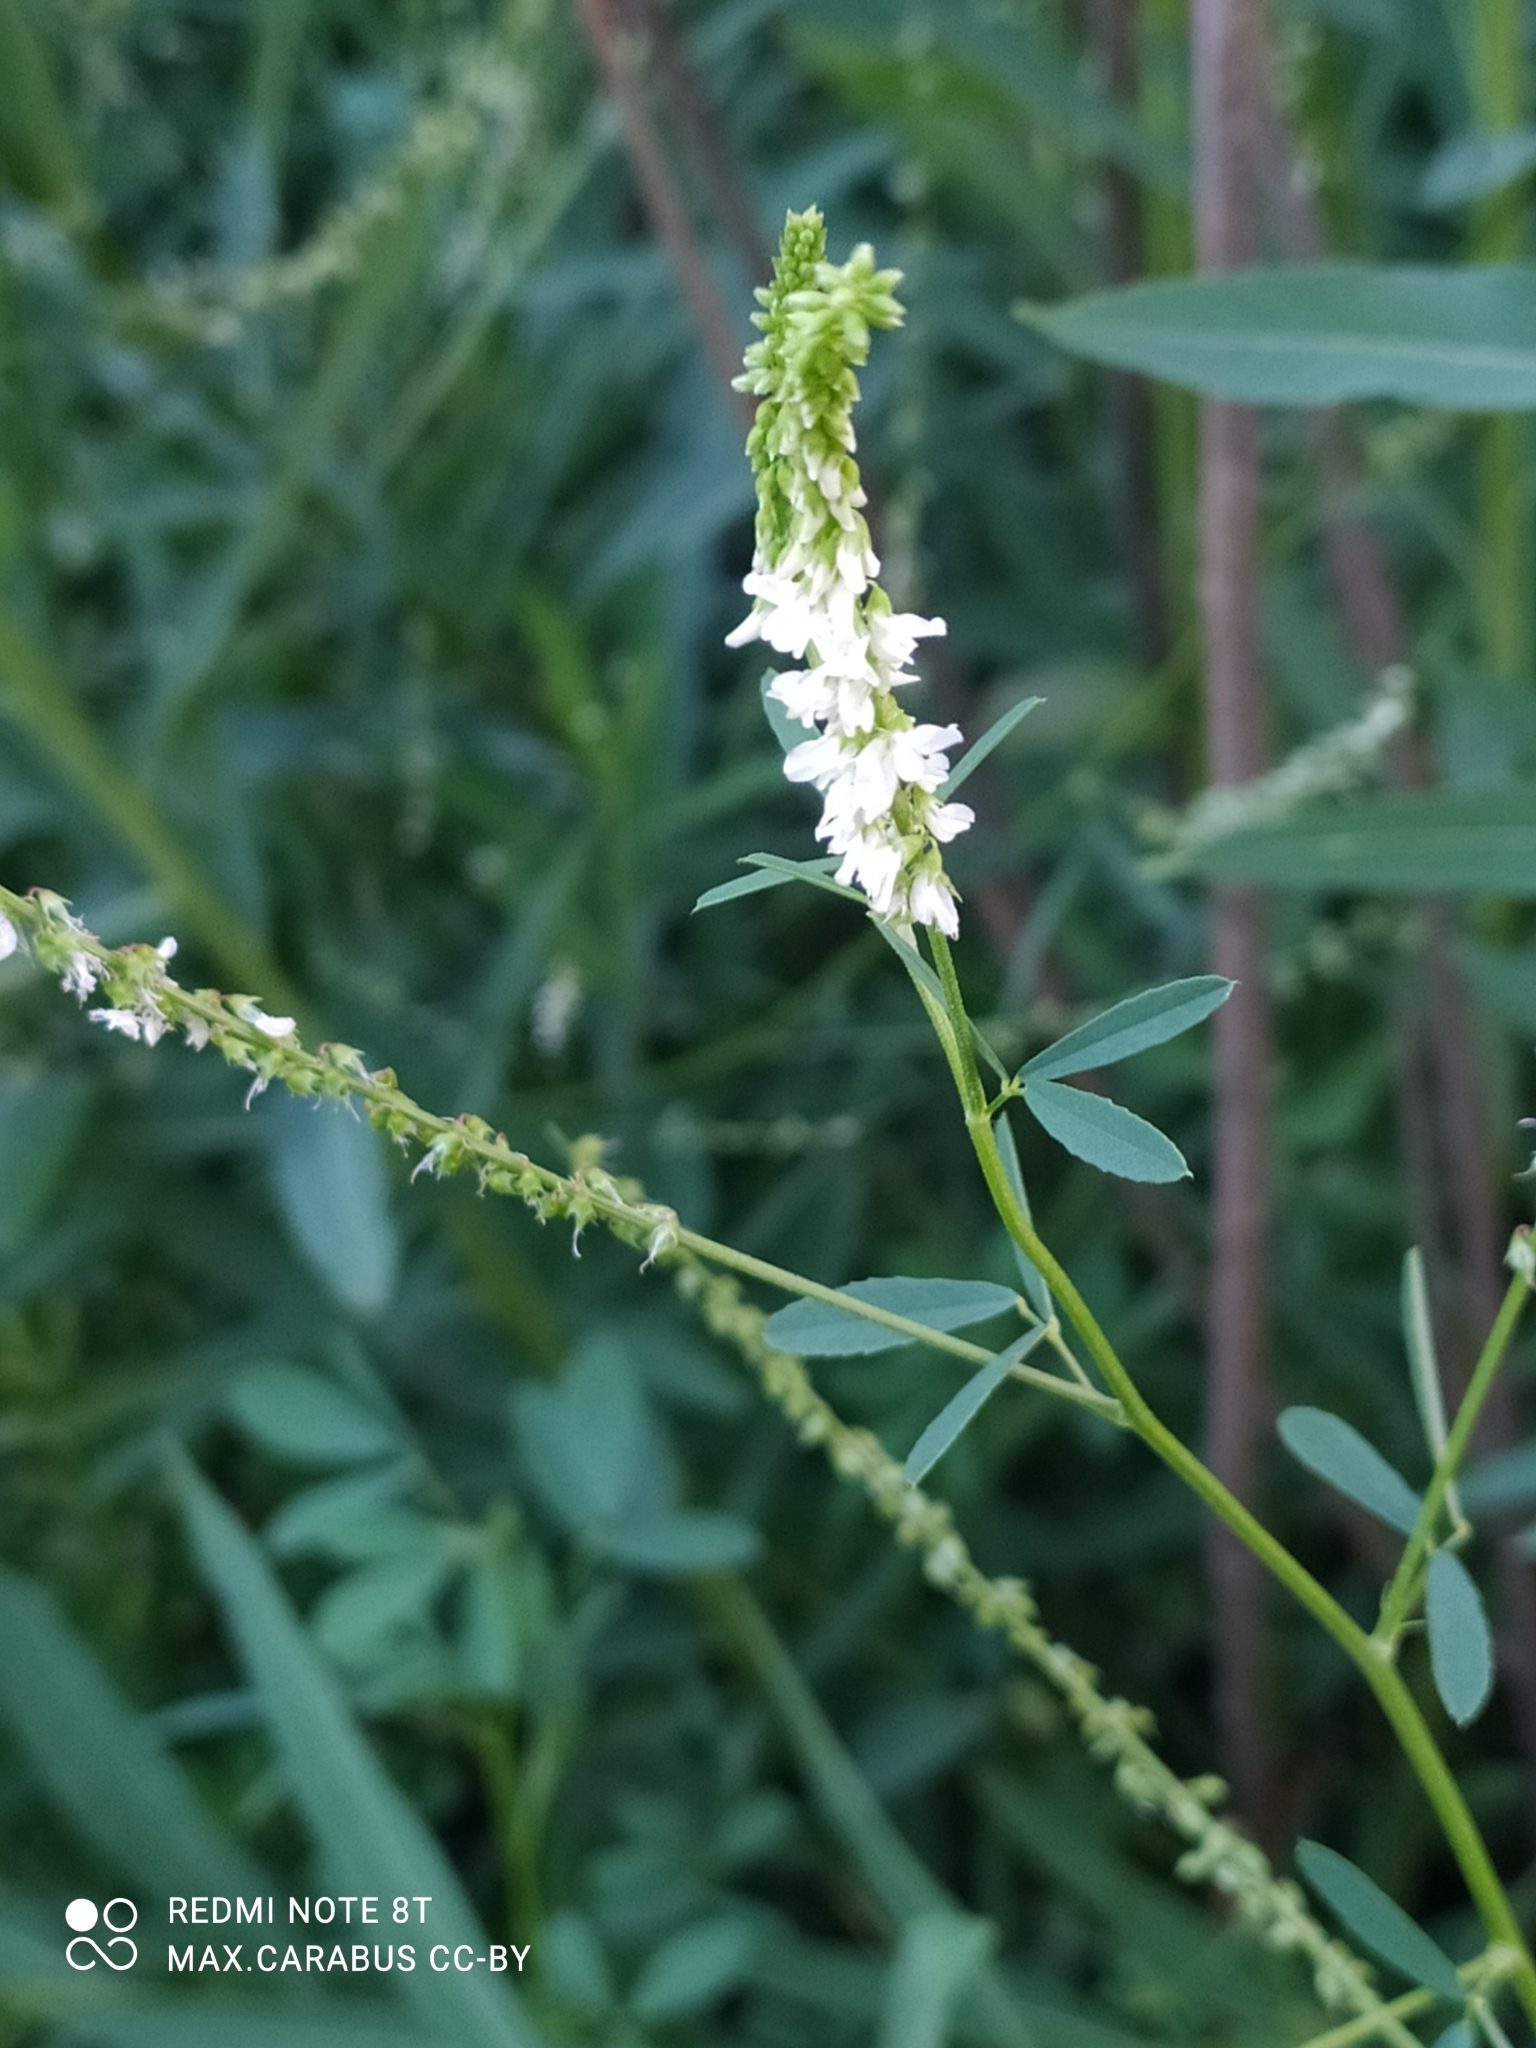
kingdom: Plantae
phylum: Tracheophyta
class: Magnoliopsida
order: Fabales
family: Fabaceae
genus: Melilotus
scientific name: Melilotus albus
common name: White melilot
